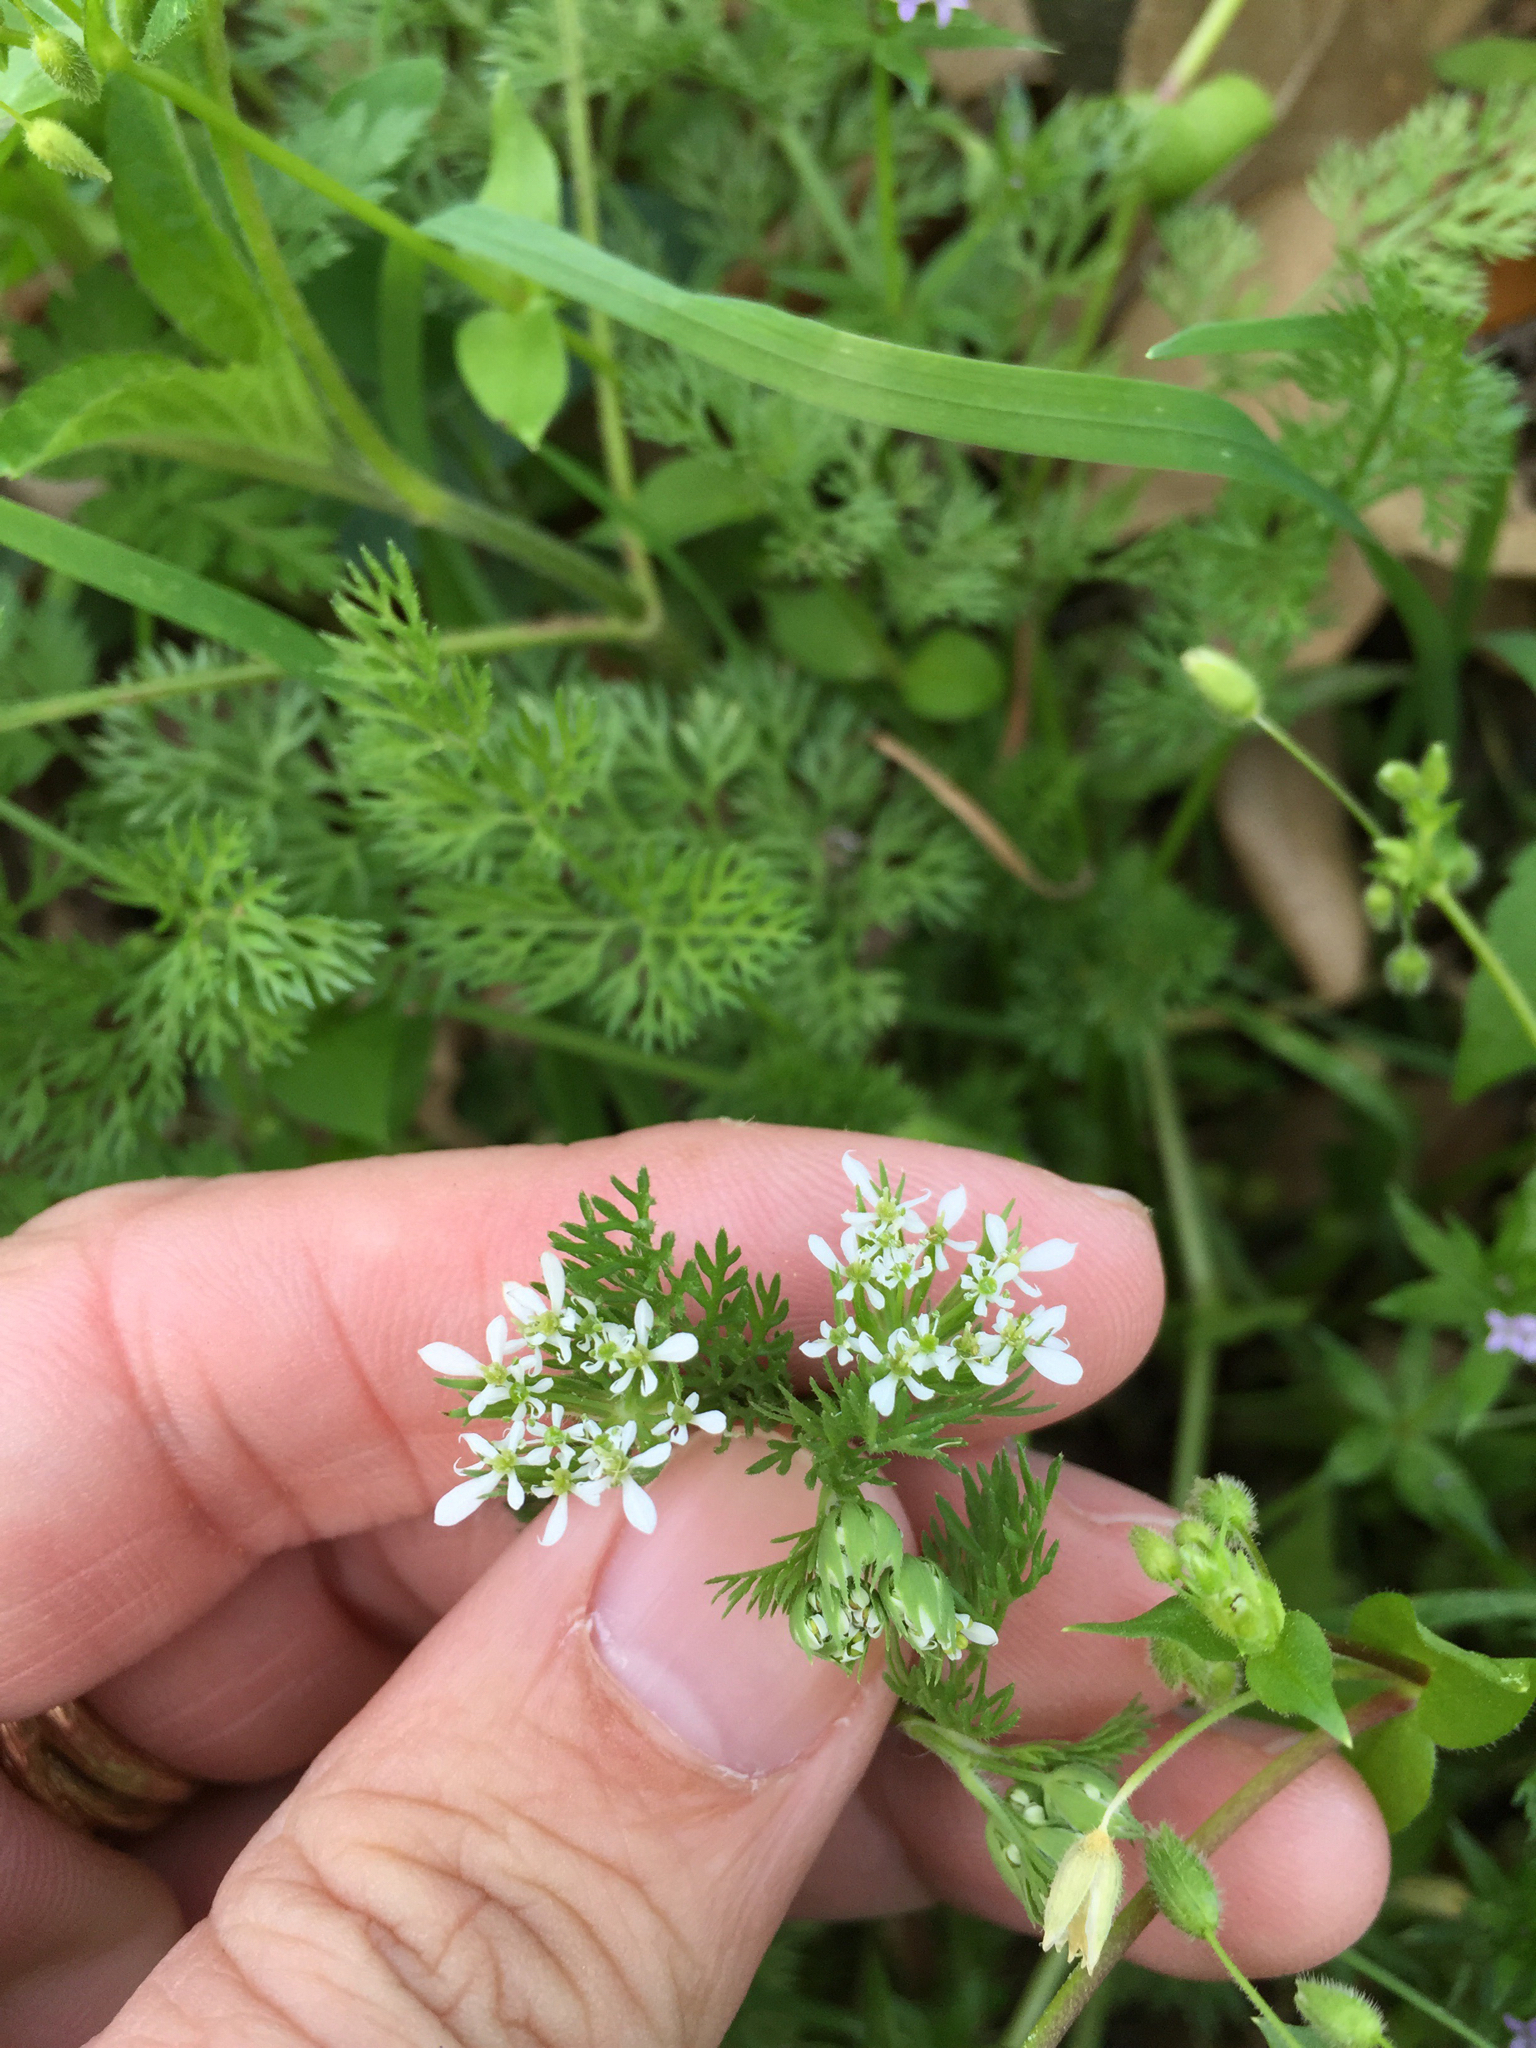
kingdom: Plantae
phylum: Tracheophyta
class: Magnoliopsida
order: Apiales
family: Apiaceae
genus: Scandix
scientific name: Scandix pecten-veneris
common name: Shepherd's-needle
